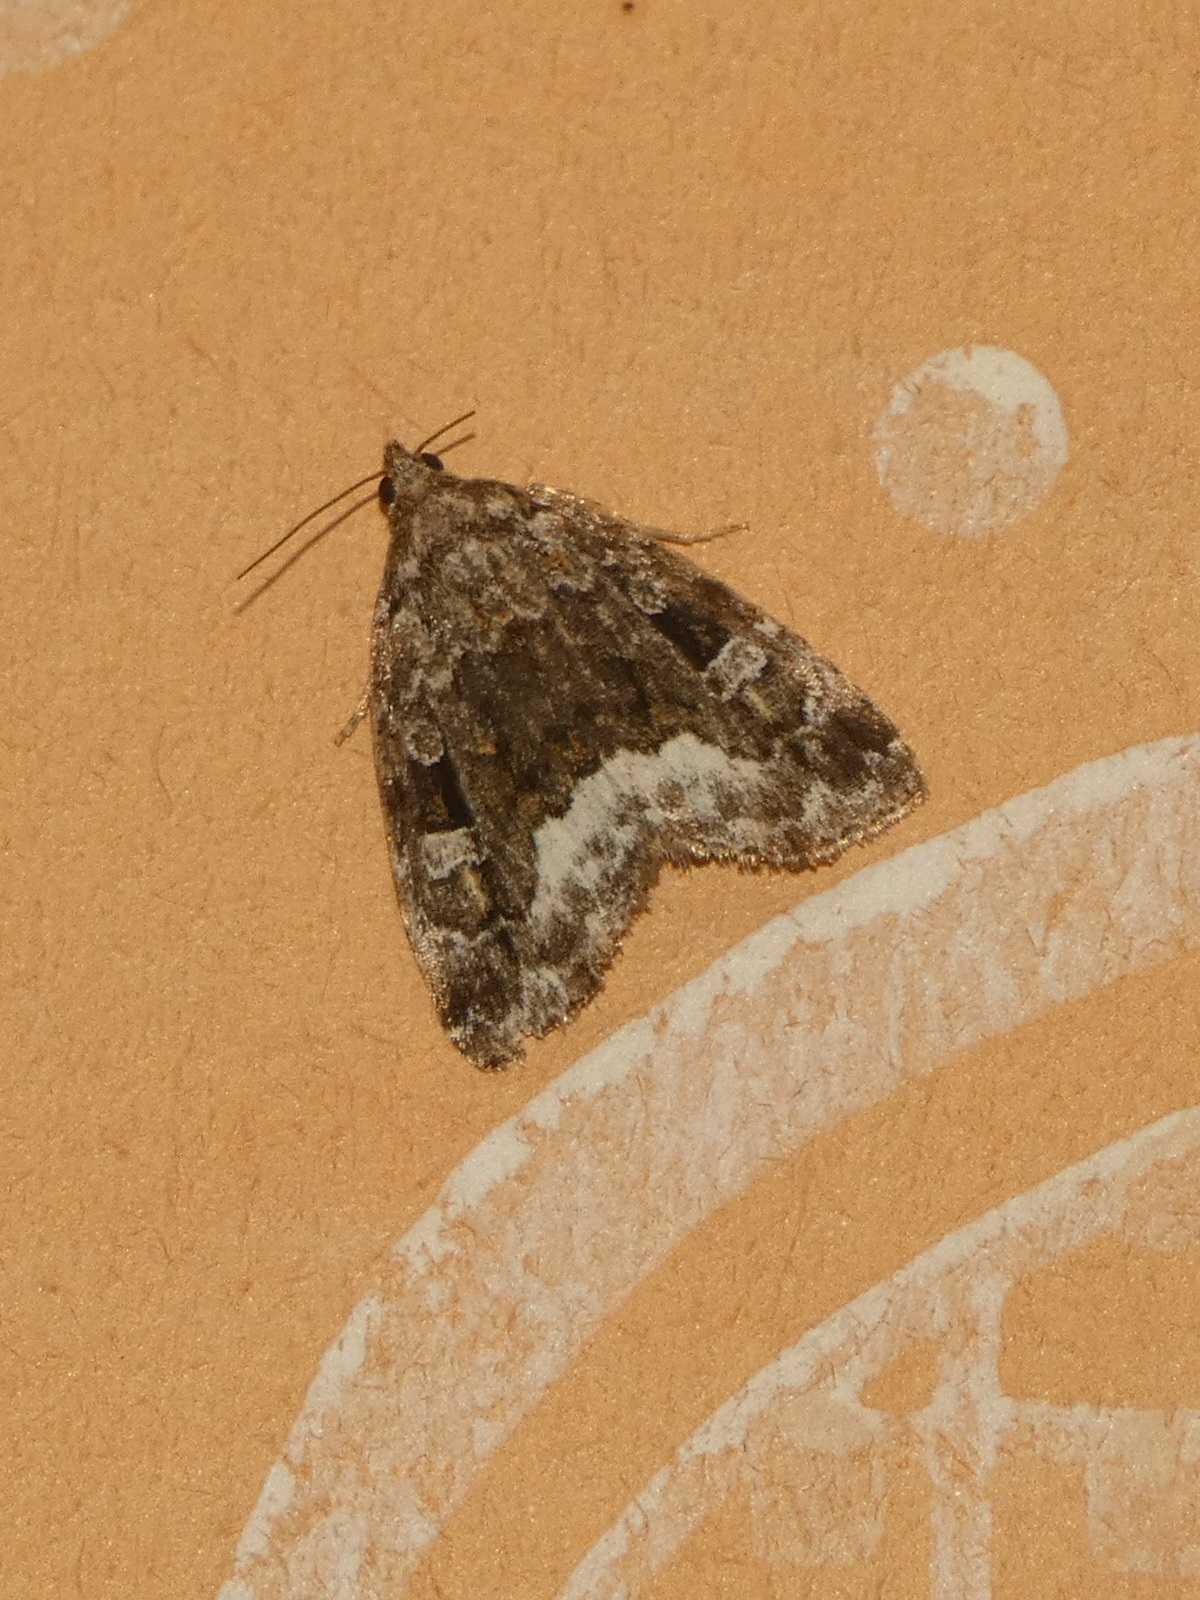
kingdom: Animalia
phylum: Arthropoda
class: Insecta
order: Lepidoptera
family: Noctuidae
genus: Deltote
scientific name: Deltote pygarga
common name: Marbled white spot
